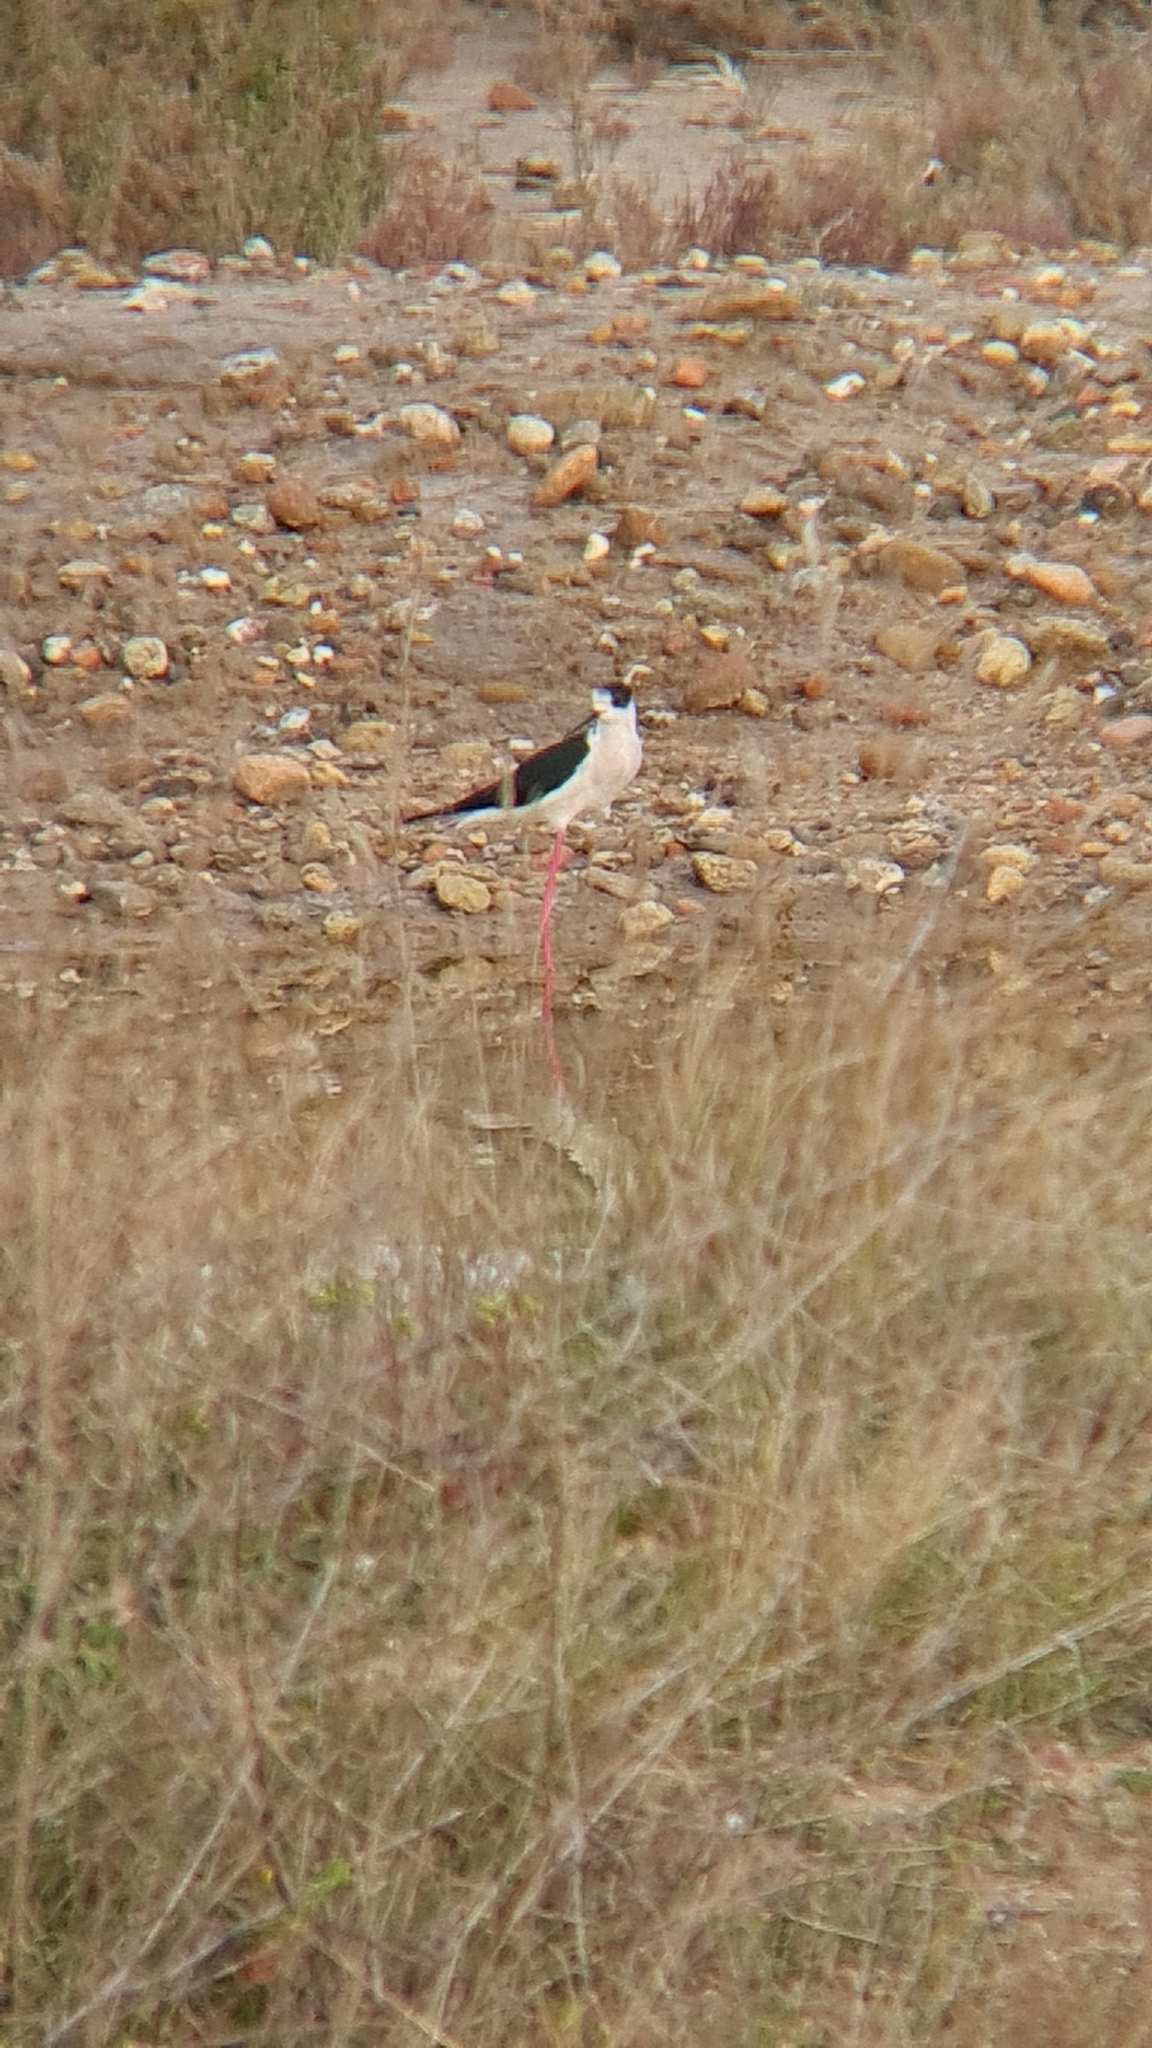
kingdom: Animalia
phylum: Chordata
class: Aves
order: Charadriiformes
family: Recurvirostridae
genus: Himantopus
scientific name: Himantopus himantopus
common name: Black-winged stilt
